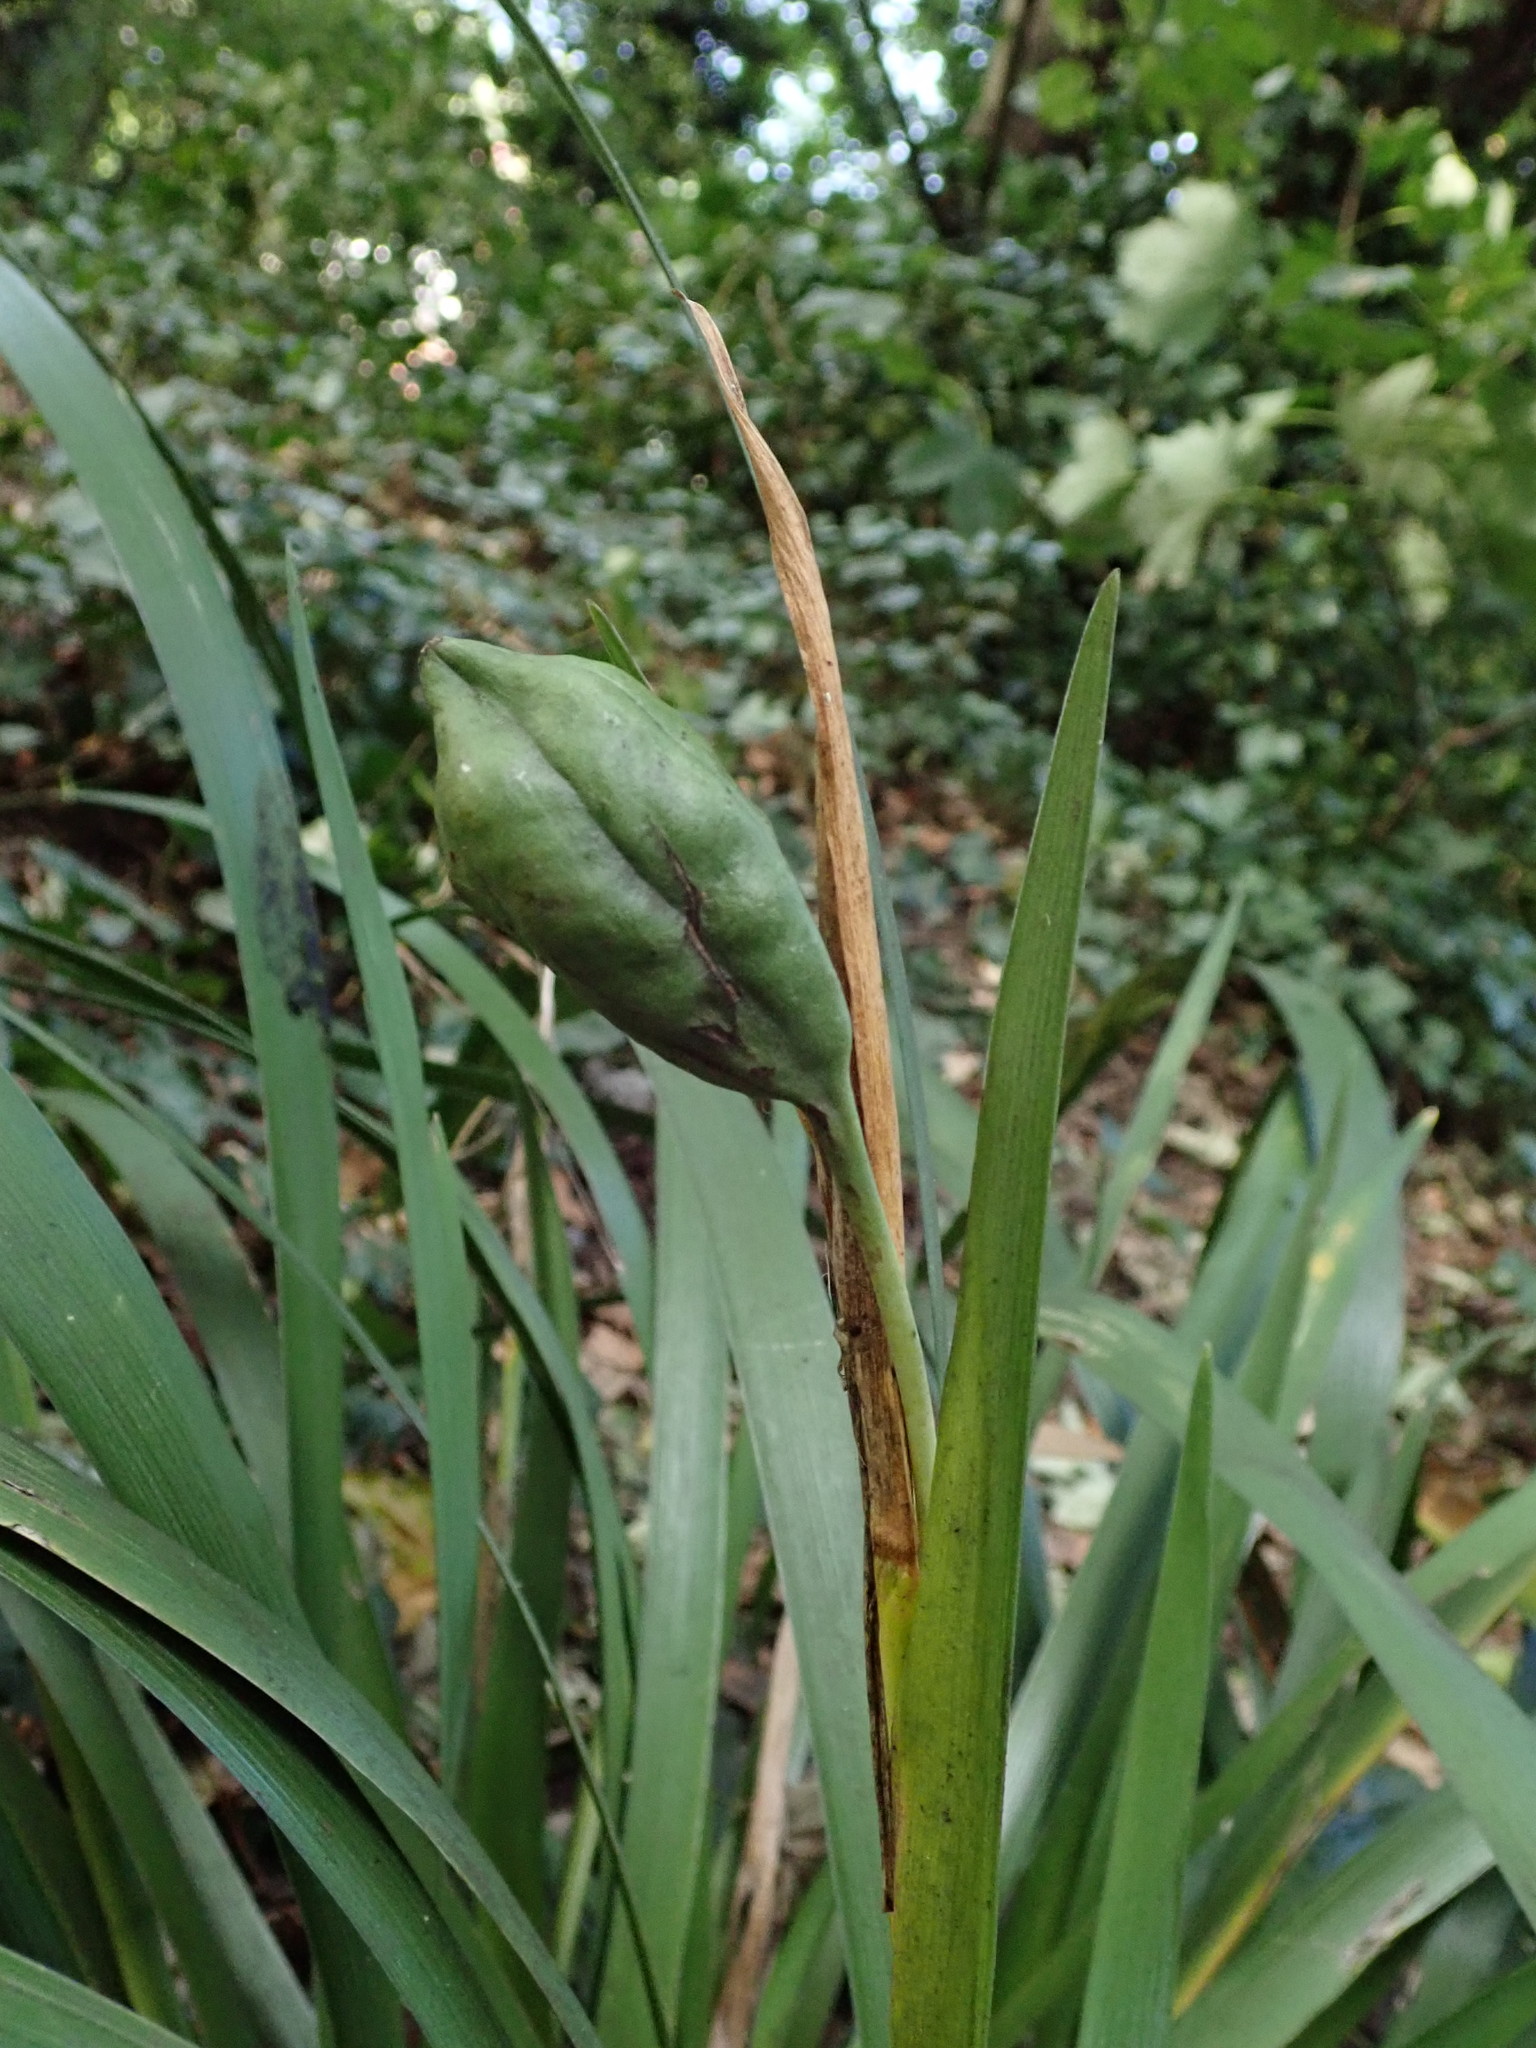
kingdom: Plantae
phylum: Tracheophyta
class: Liliopsida
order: Asparagales
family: Iridaceae
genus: Iris
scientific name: Iris foetidissima
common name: Stinking iris
